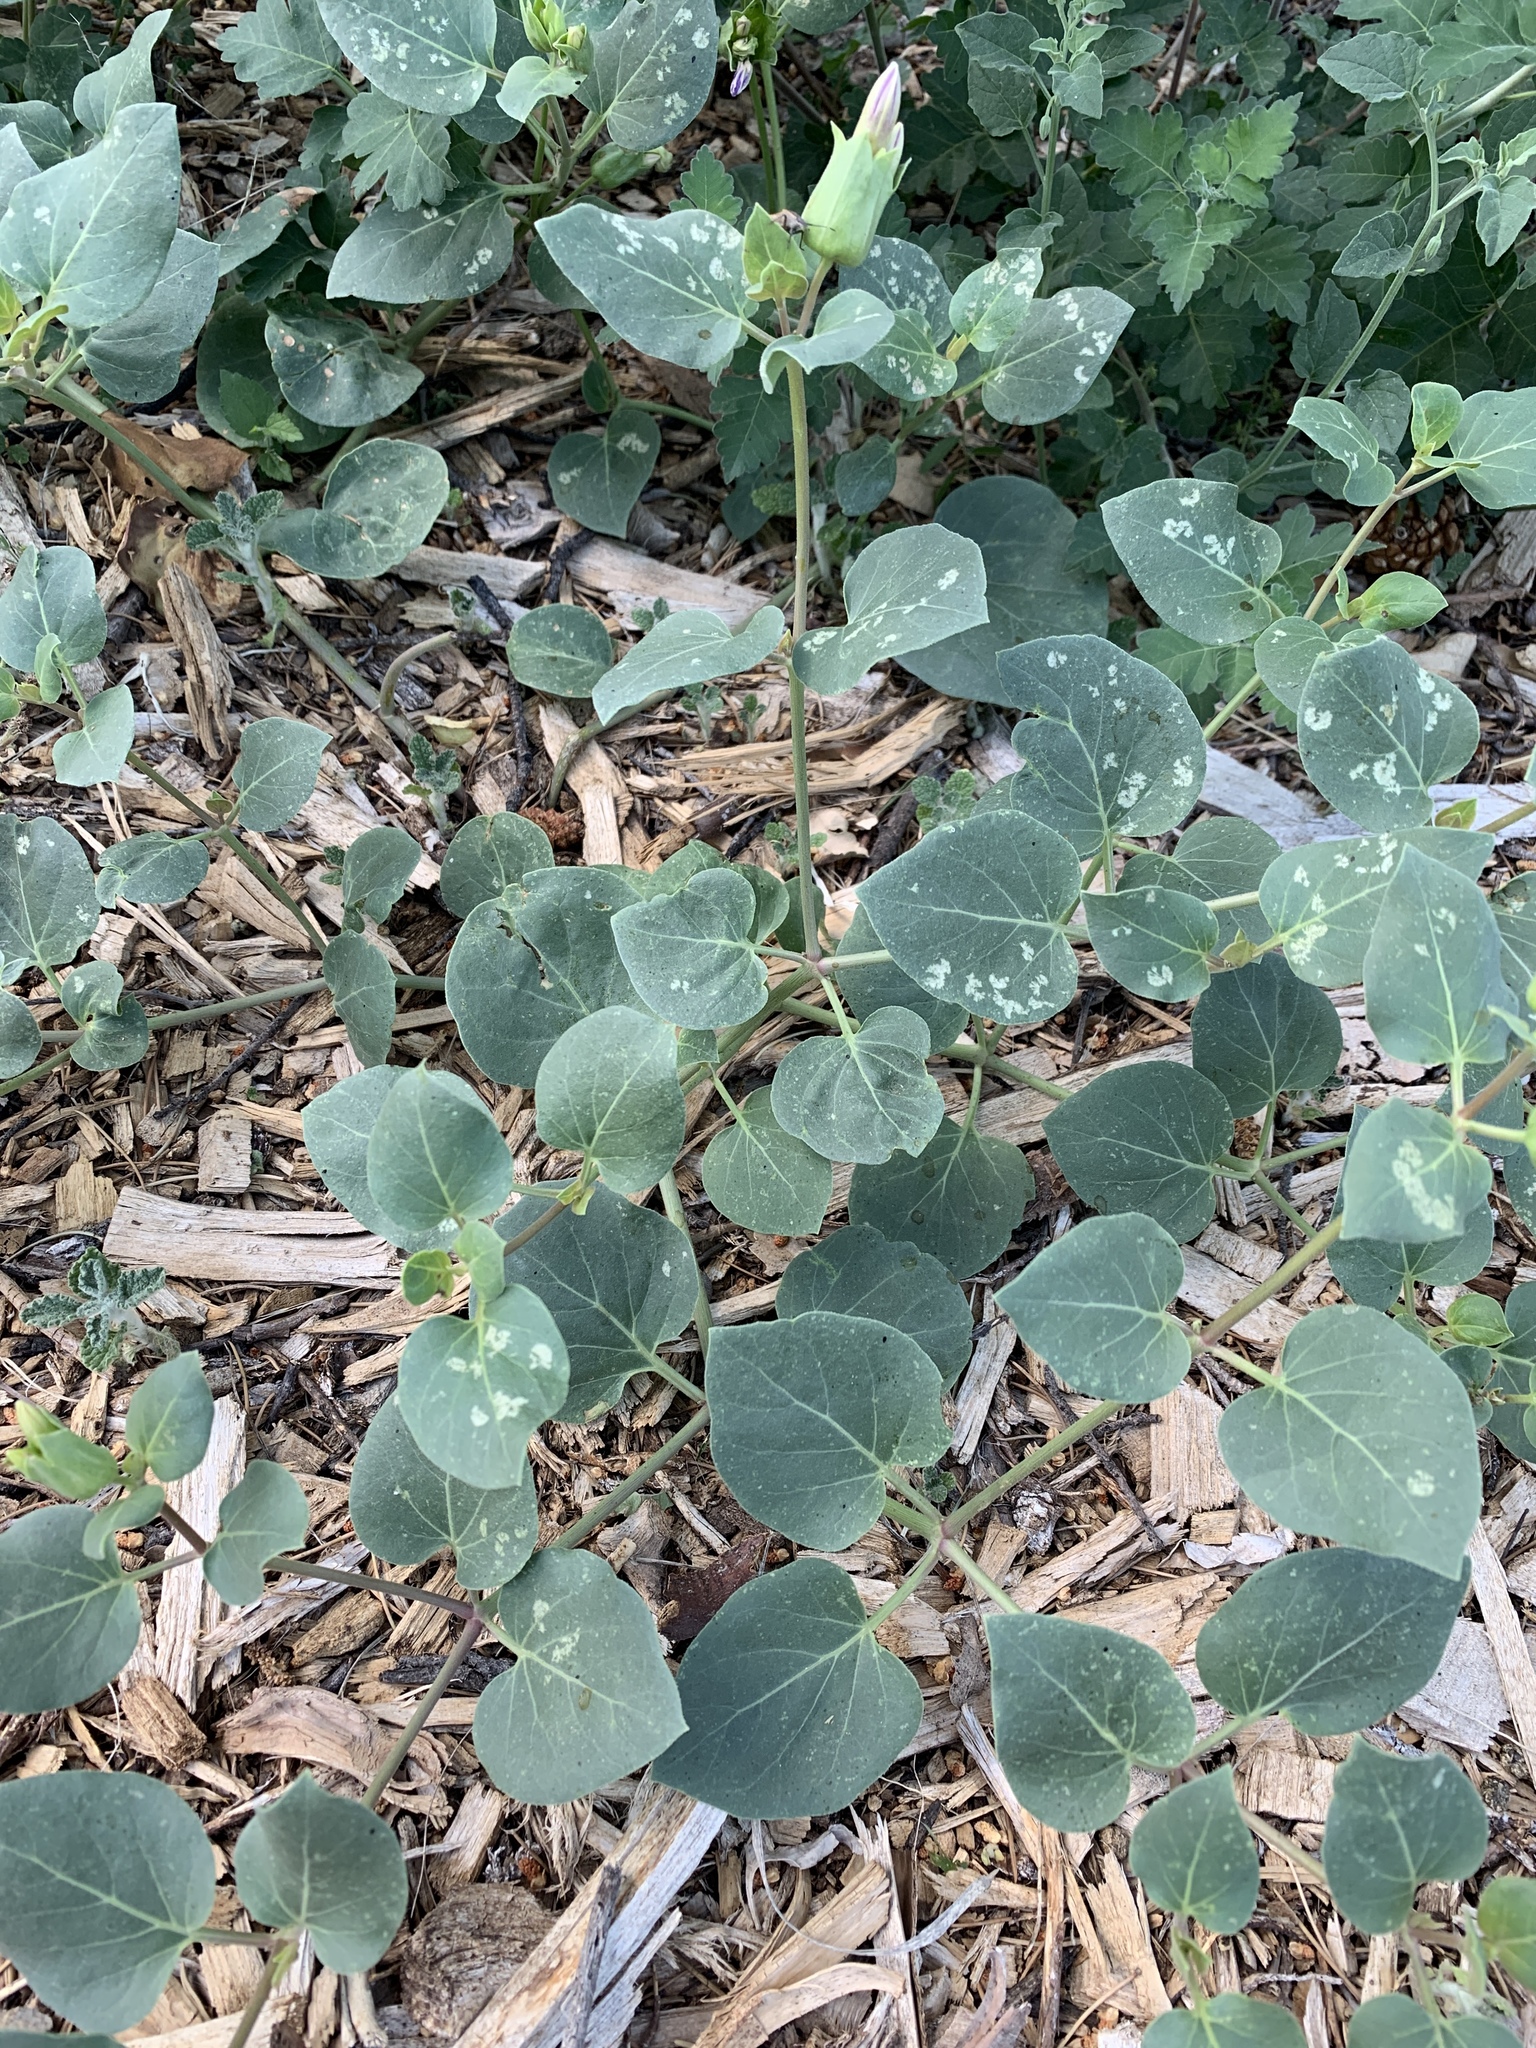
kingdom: Plantae
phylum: Tracheophyta
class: Magnoliopsida
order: Caryophyllales
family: Nyctaginaceae
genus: Mirabilis
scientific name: Mirabilis multiflora
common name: Froebel's four-o'clock
